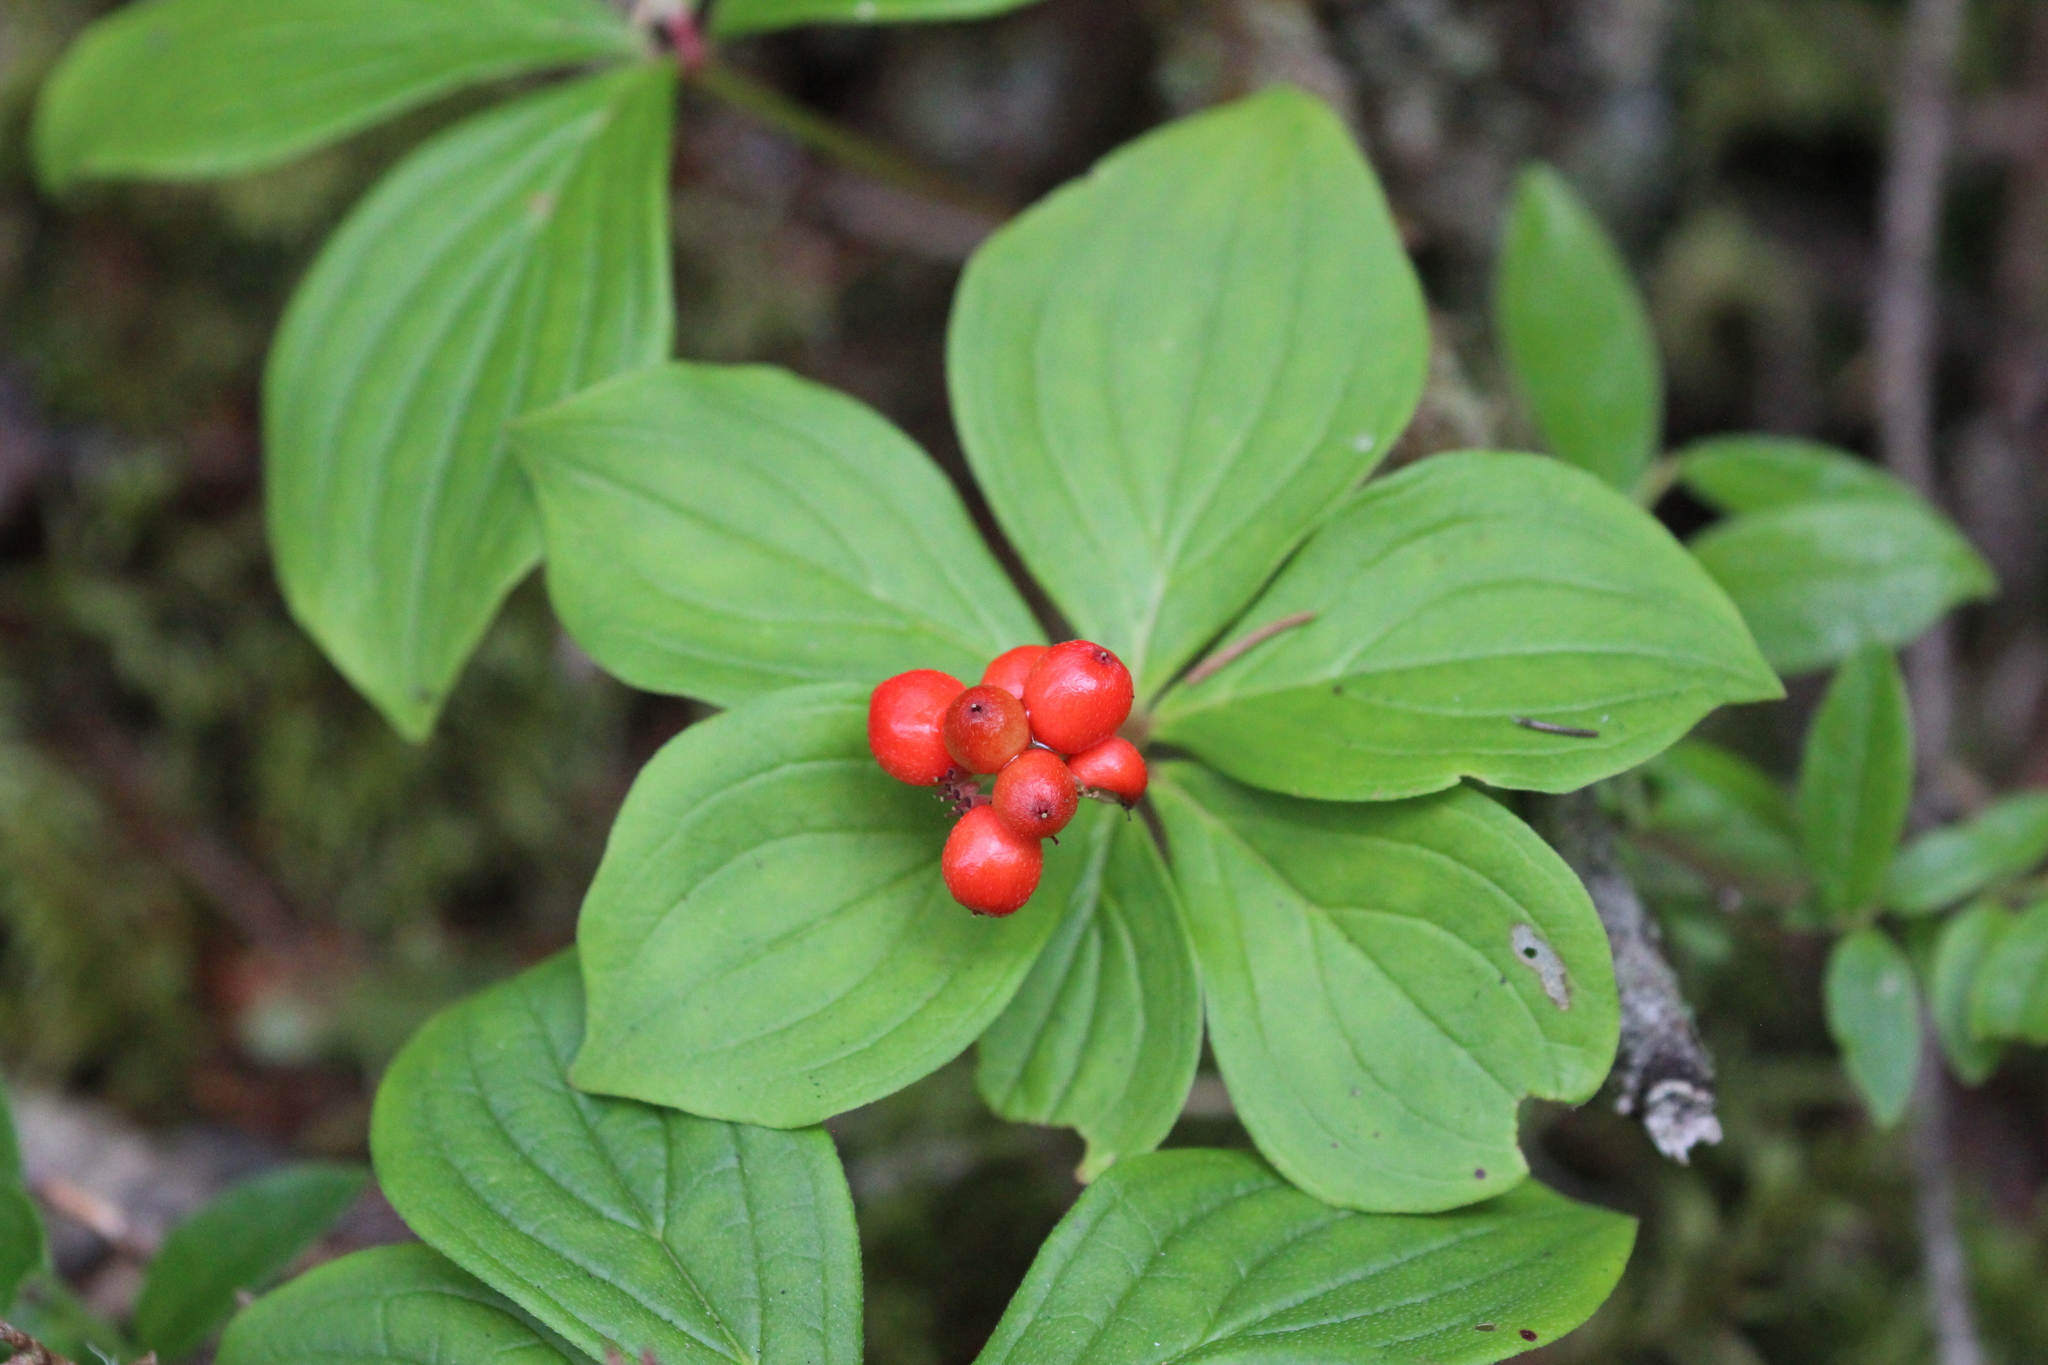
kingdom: Plantae
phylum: Tracheophyta
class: Magnoliopsida
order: Cornales
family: Cornaceae
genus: Cornus
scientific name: Cornus canadensis
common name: Creeping dogwood
